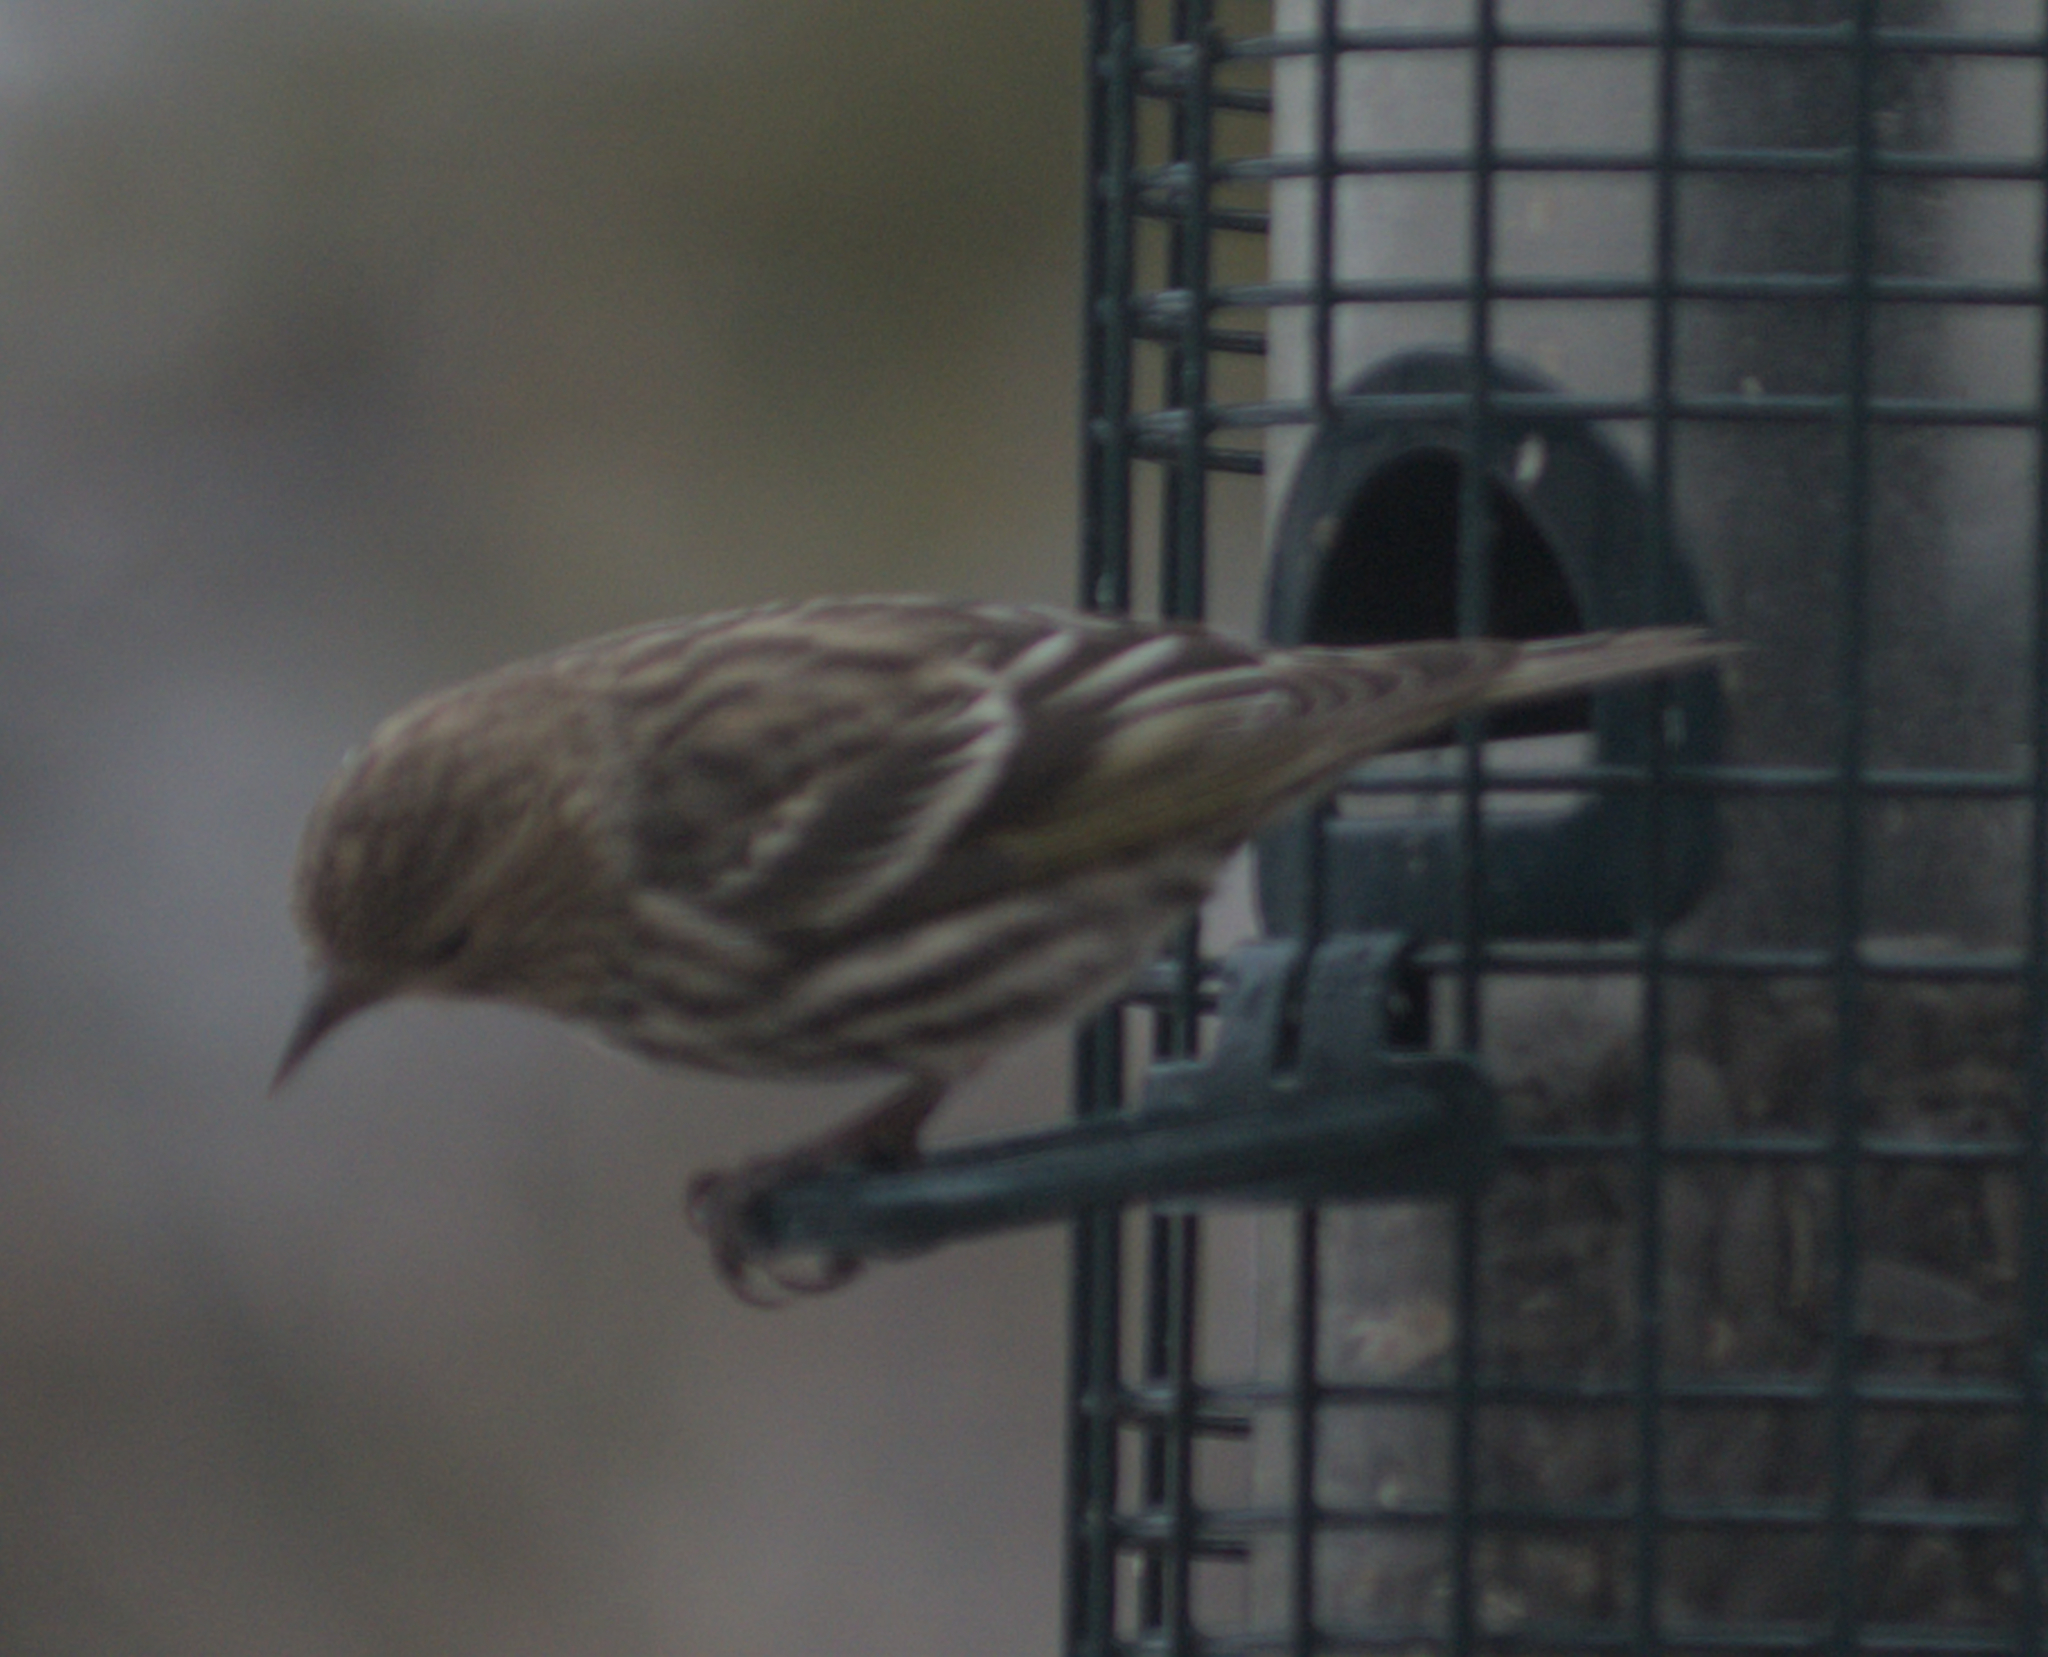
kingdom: Animalia
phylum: Chordata
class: Aves
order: Passeriformes
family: Fringillidae
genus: Spinus
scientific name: Spinus pinus
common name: Pine siskin
